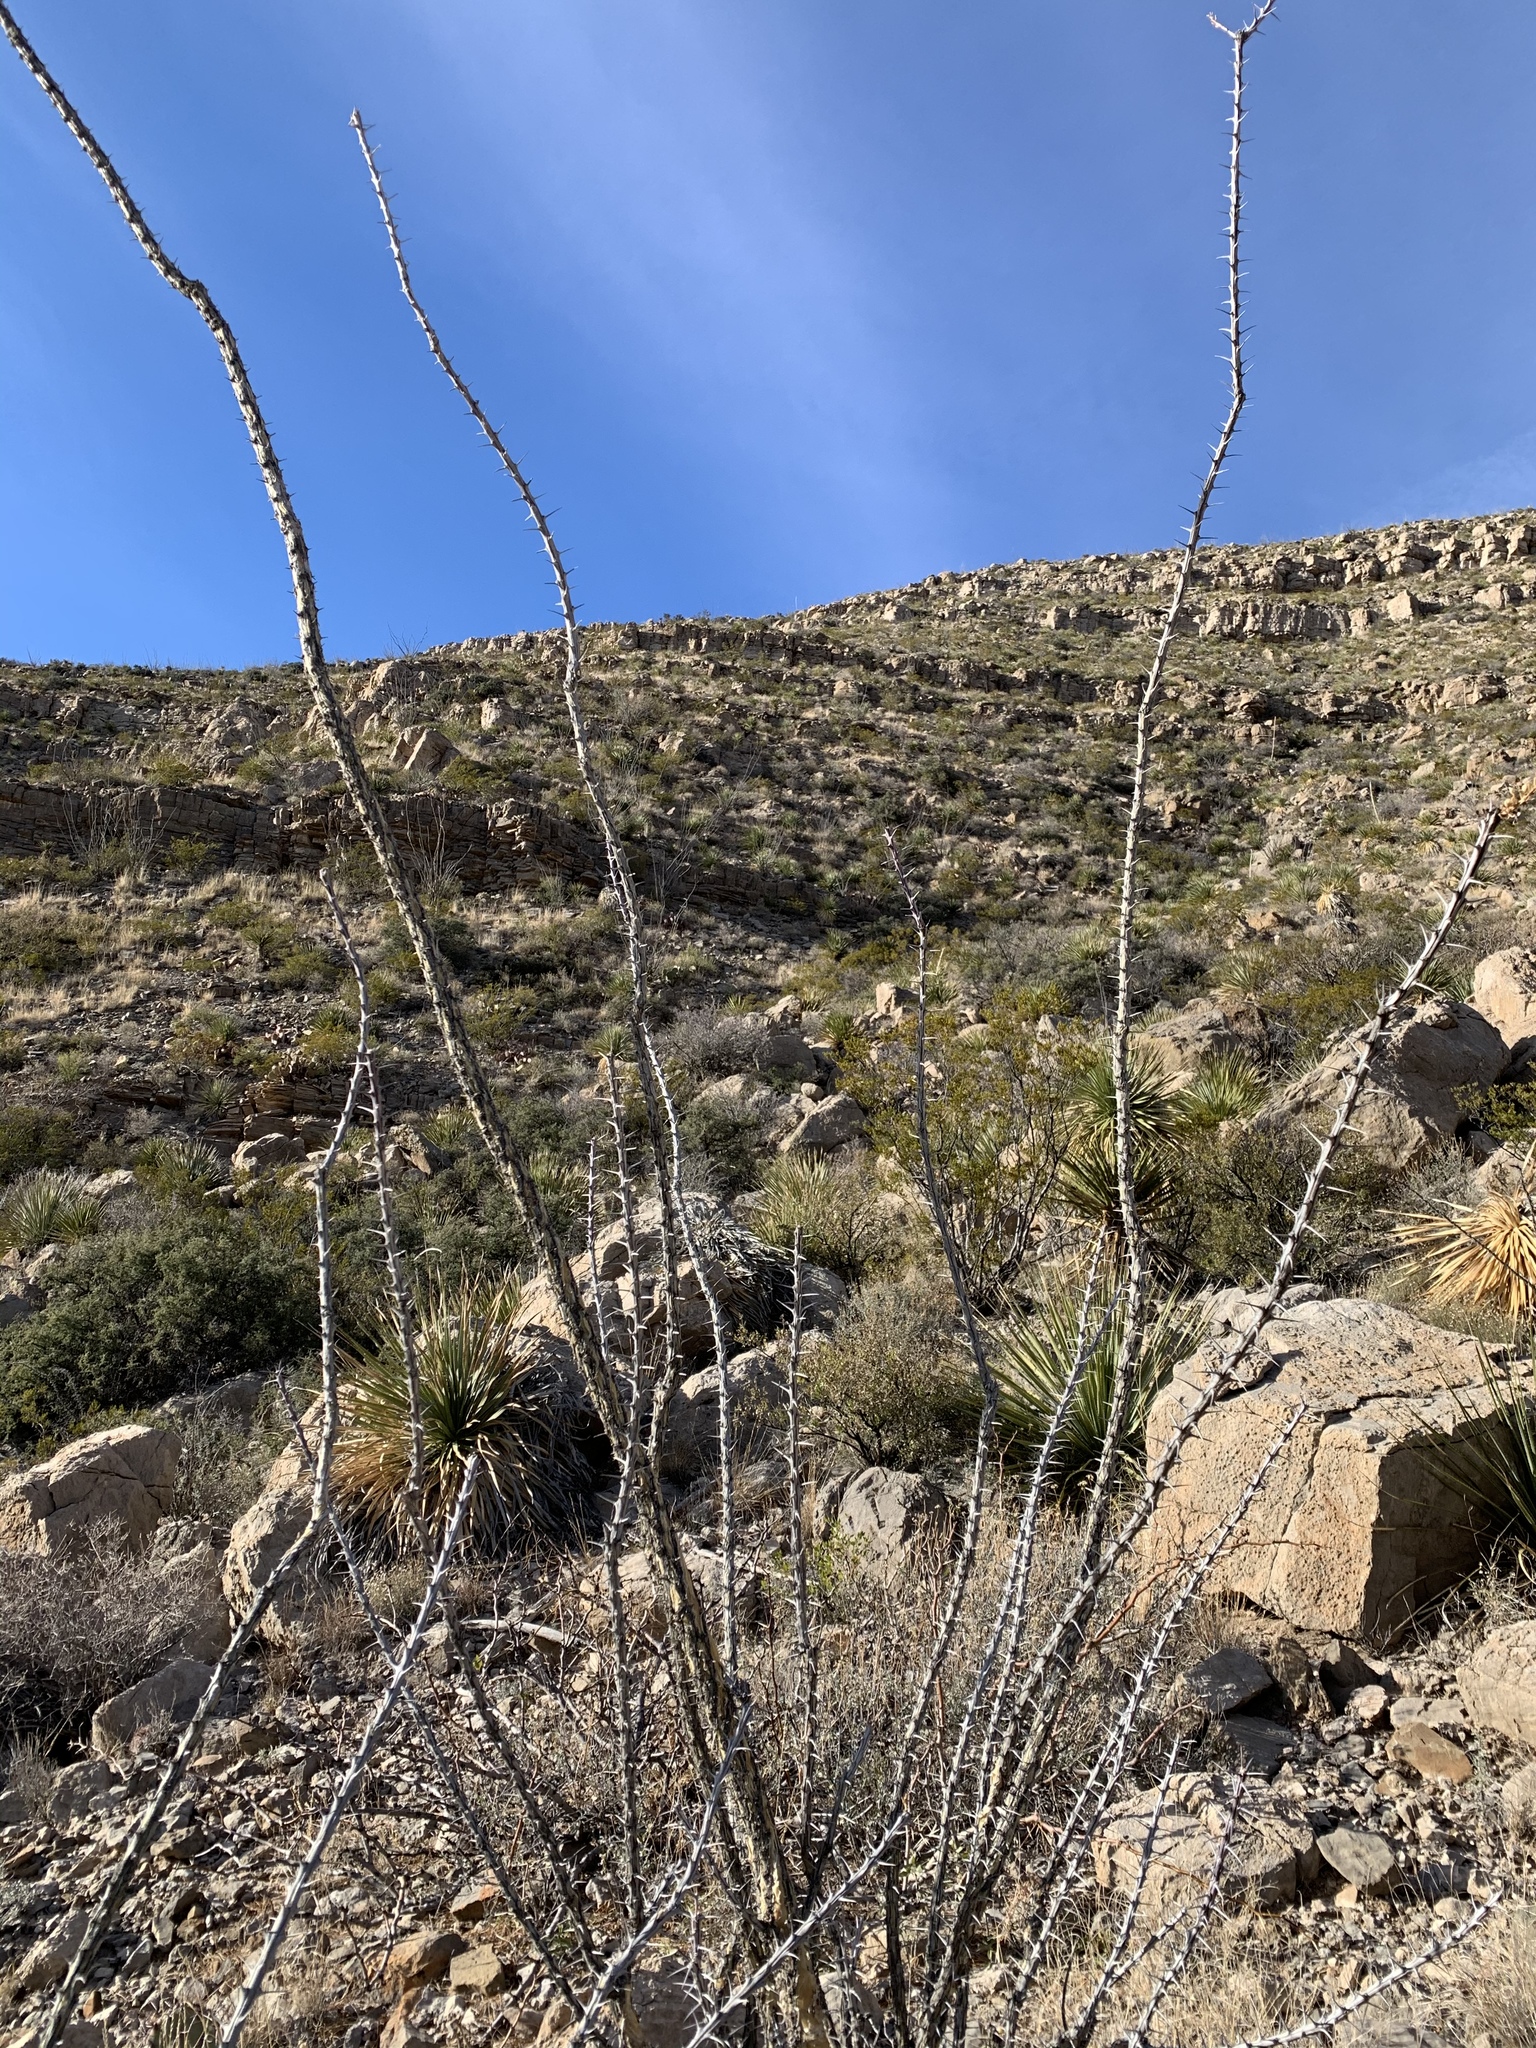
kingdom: Plantae
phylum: Tracheophyta
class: Magnoliopsida
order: Ericales
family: Fouquieriaceae
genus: Fouquieria
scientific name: Fouquieria splendens
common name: Vine-cactus
